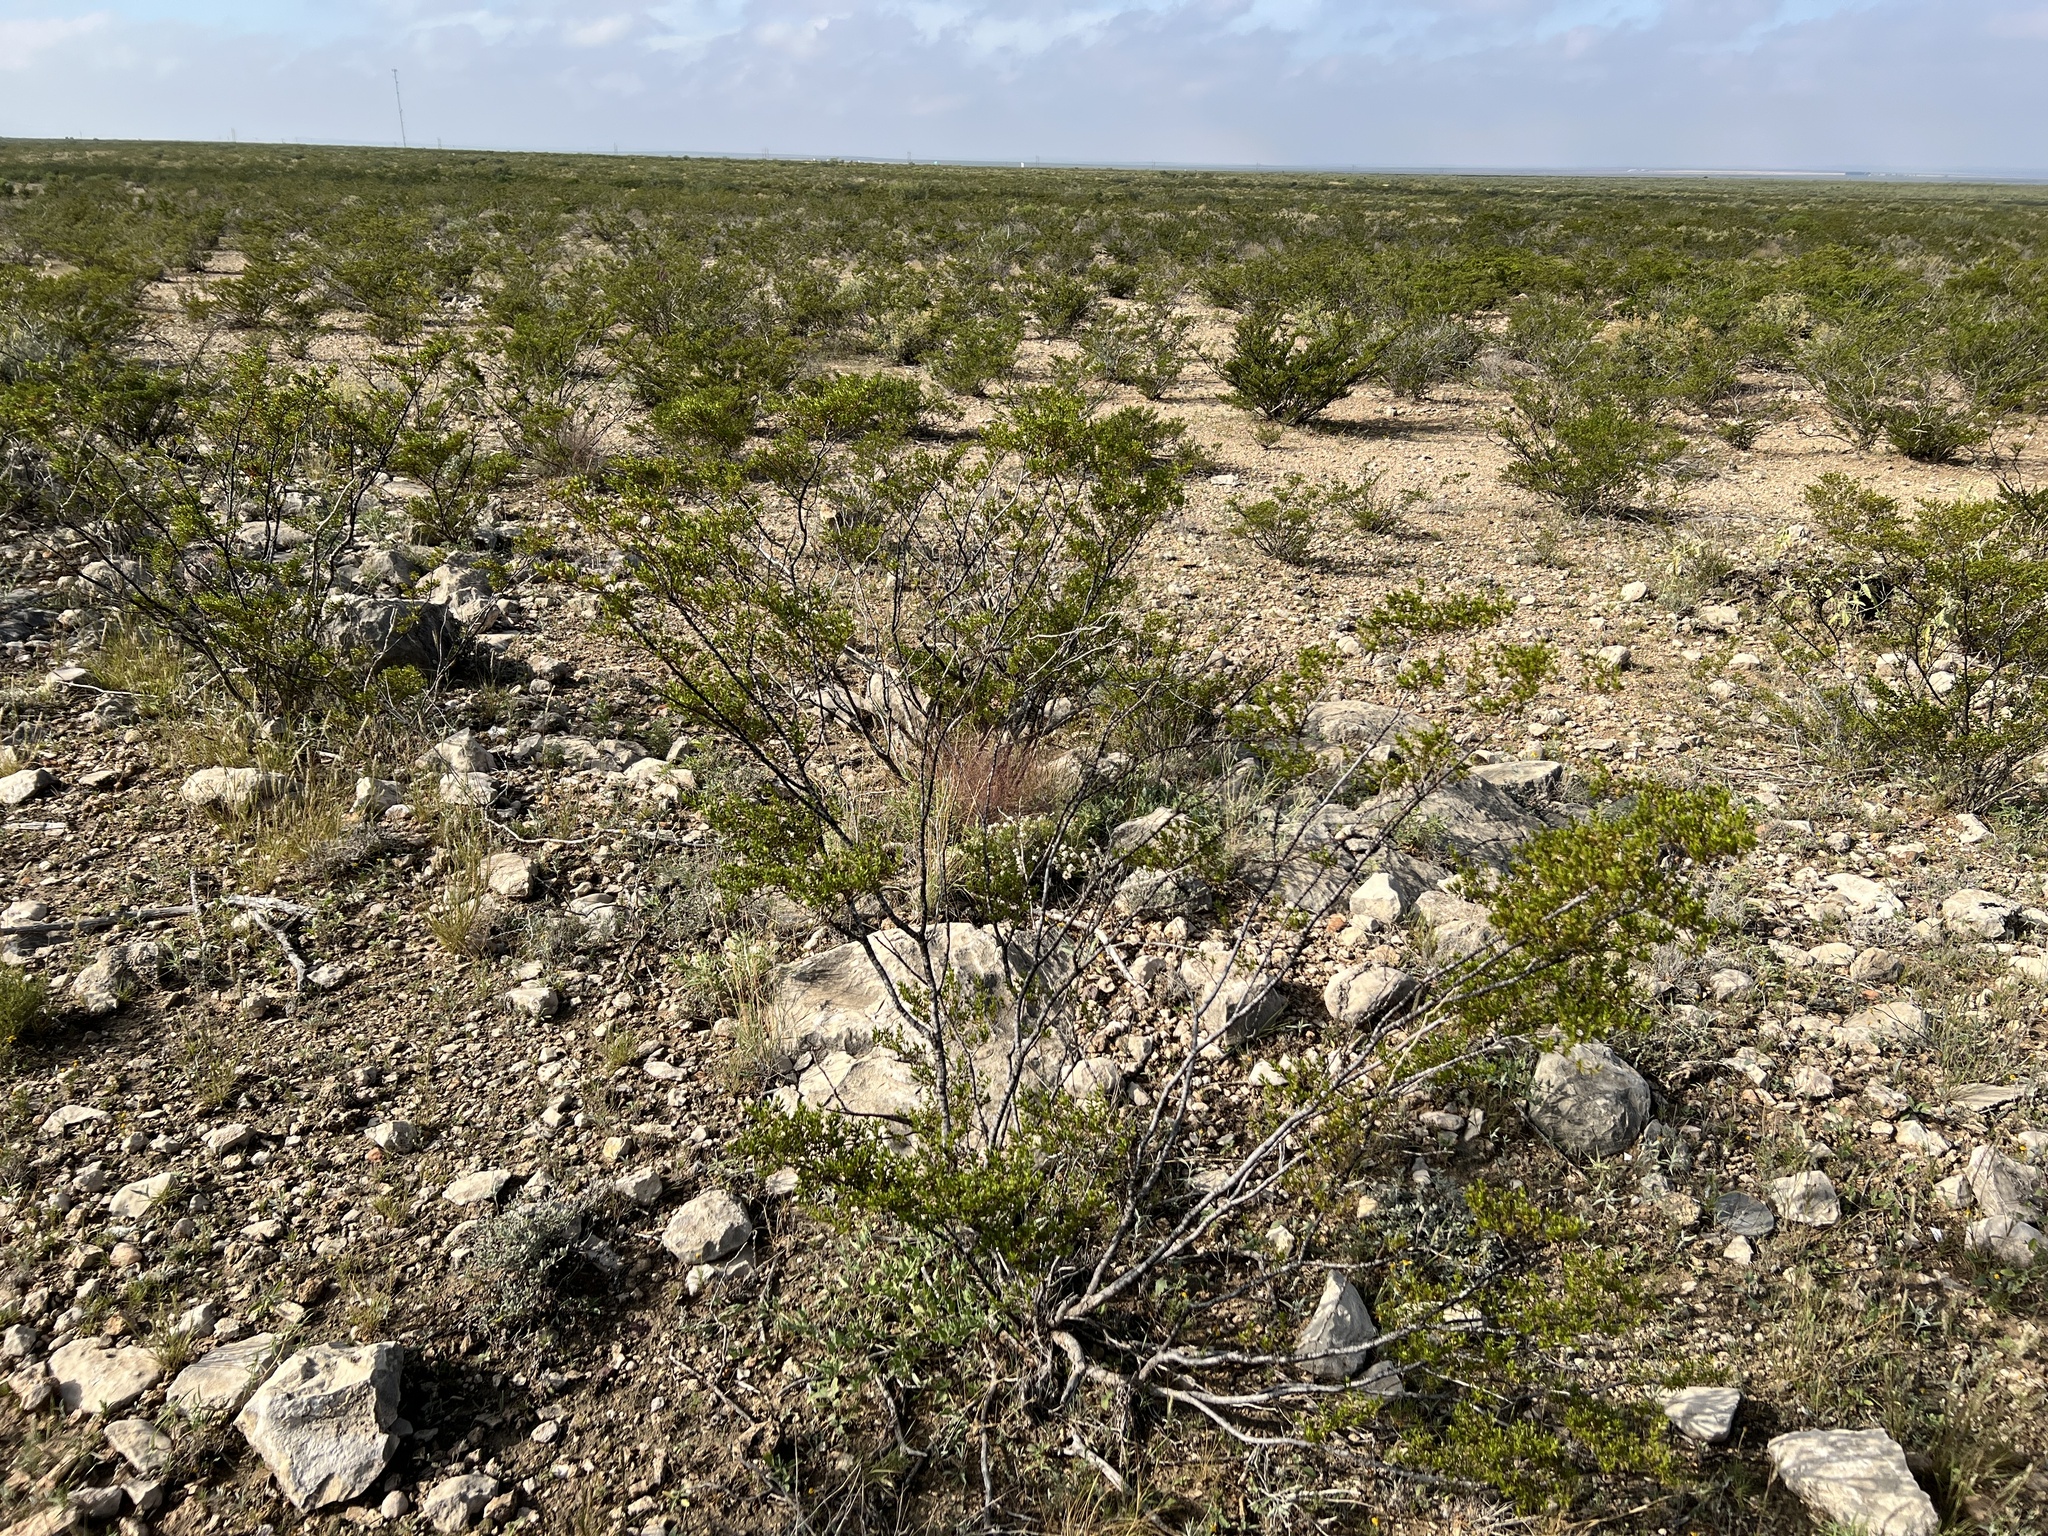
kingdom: Plantae
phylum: Tracheophyta
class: Magnoliopsida
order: Zygophyllales
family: Zygophyllaceae
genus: Larrea
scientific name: Larrea tridentata
